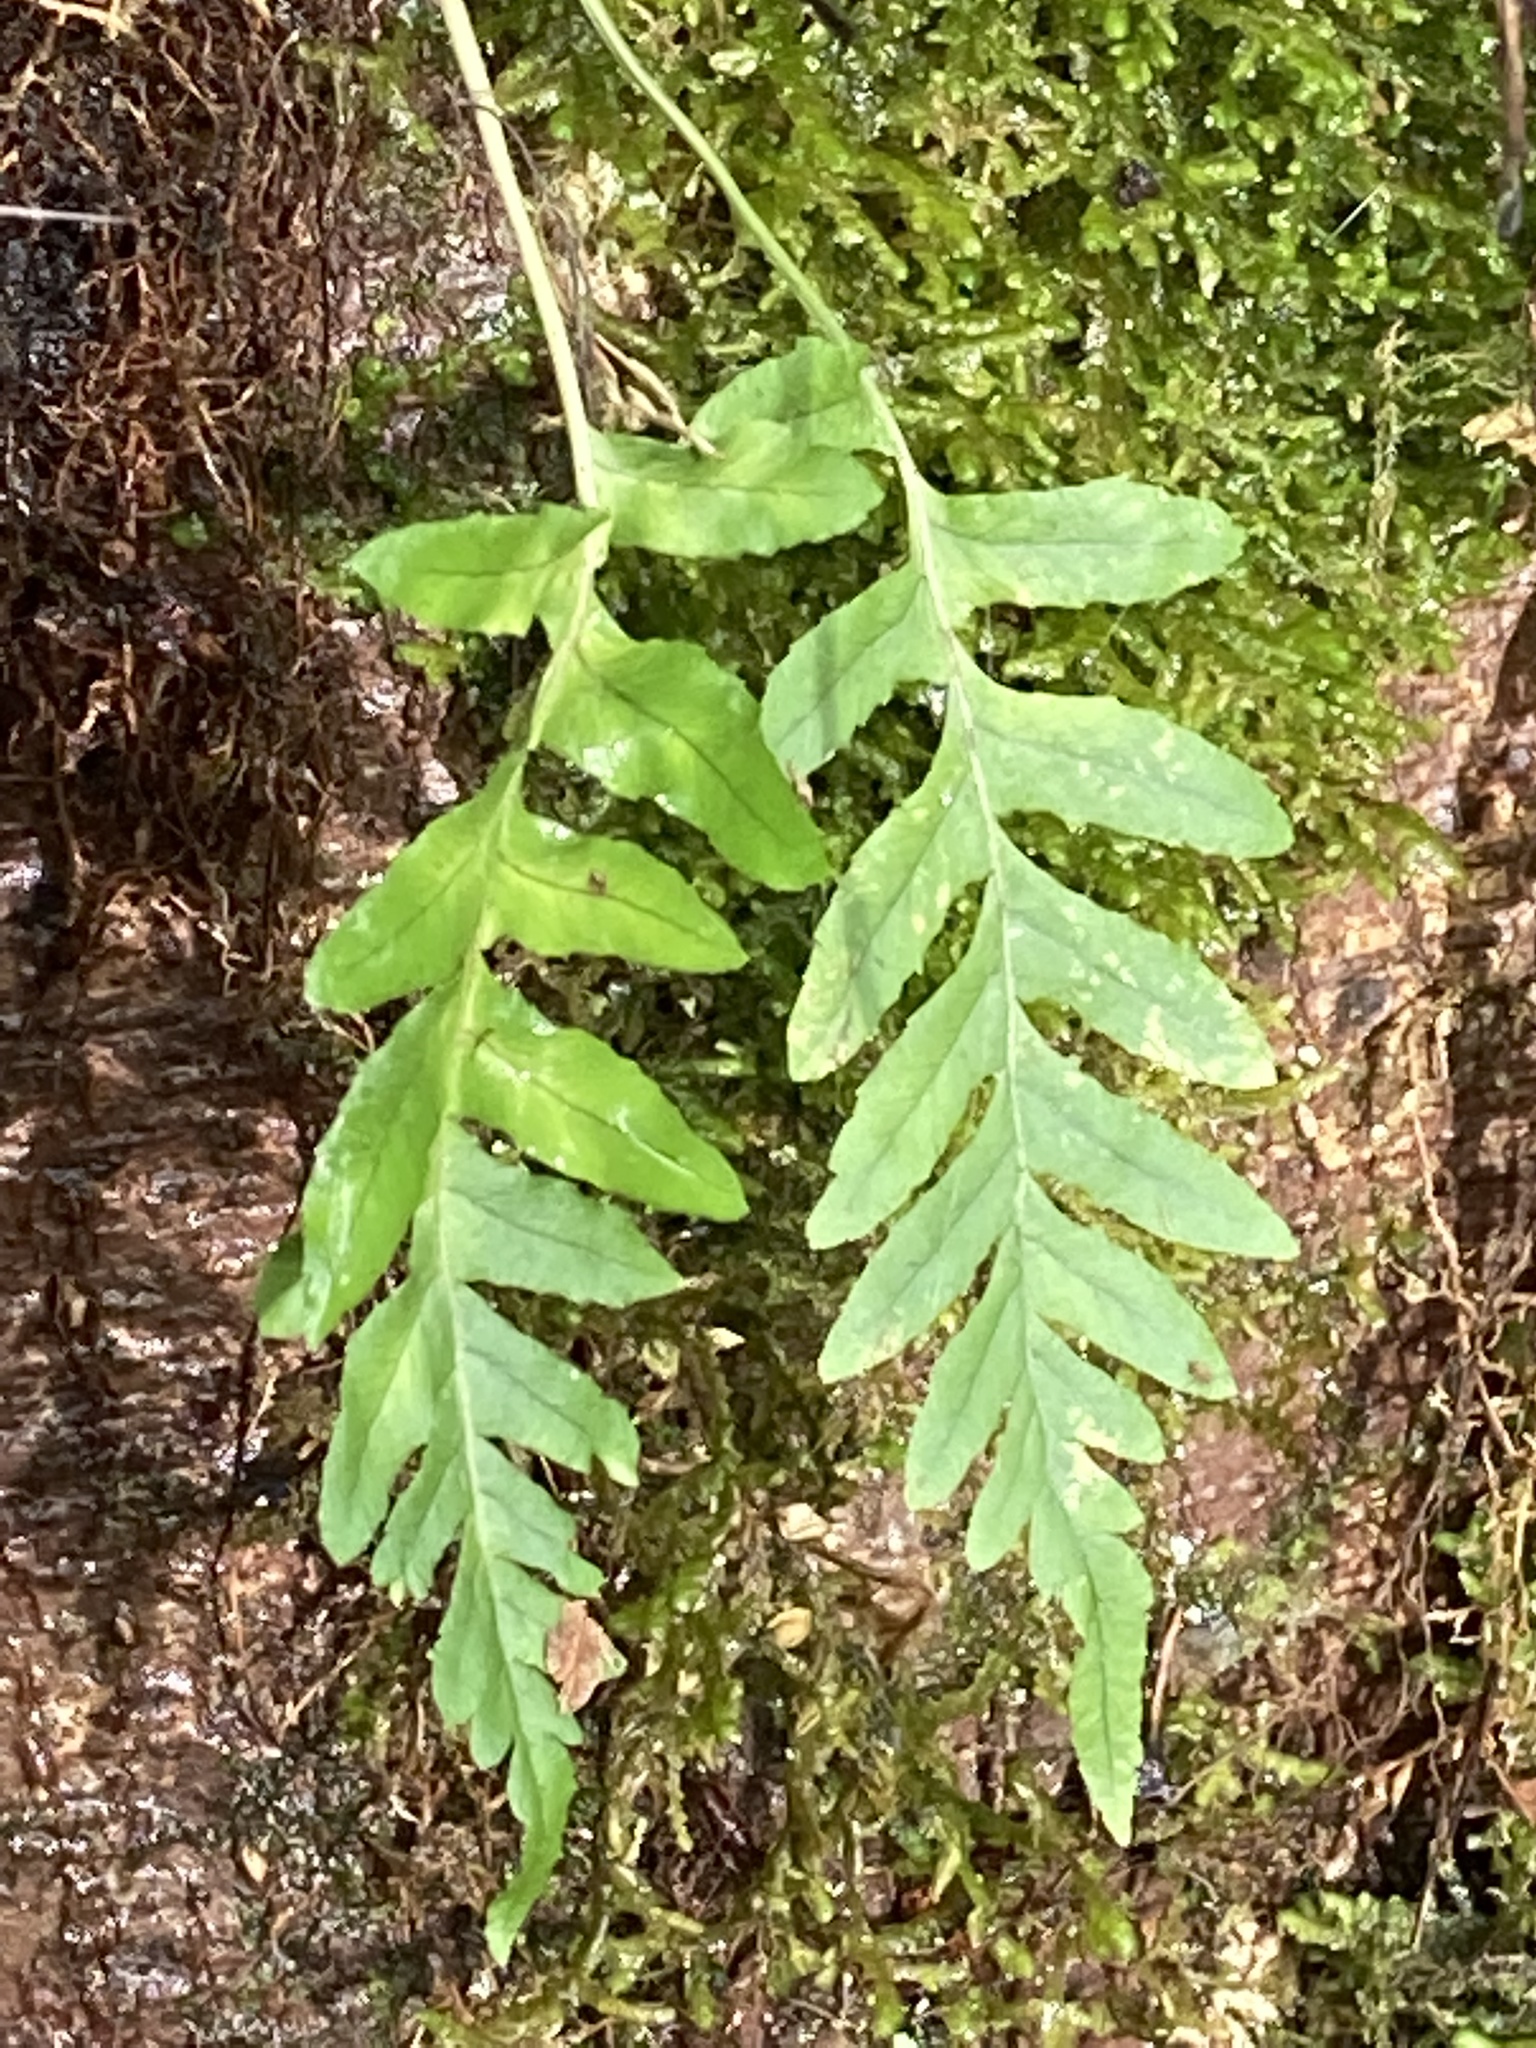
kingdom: Plantae
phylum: Tracheophyta
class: Polypodiopsida
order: Polypodiales
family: Polypodiaceae
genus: Polypodium
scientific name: Polypodium glycyrrhiza
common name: Licorice fern
